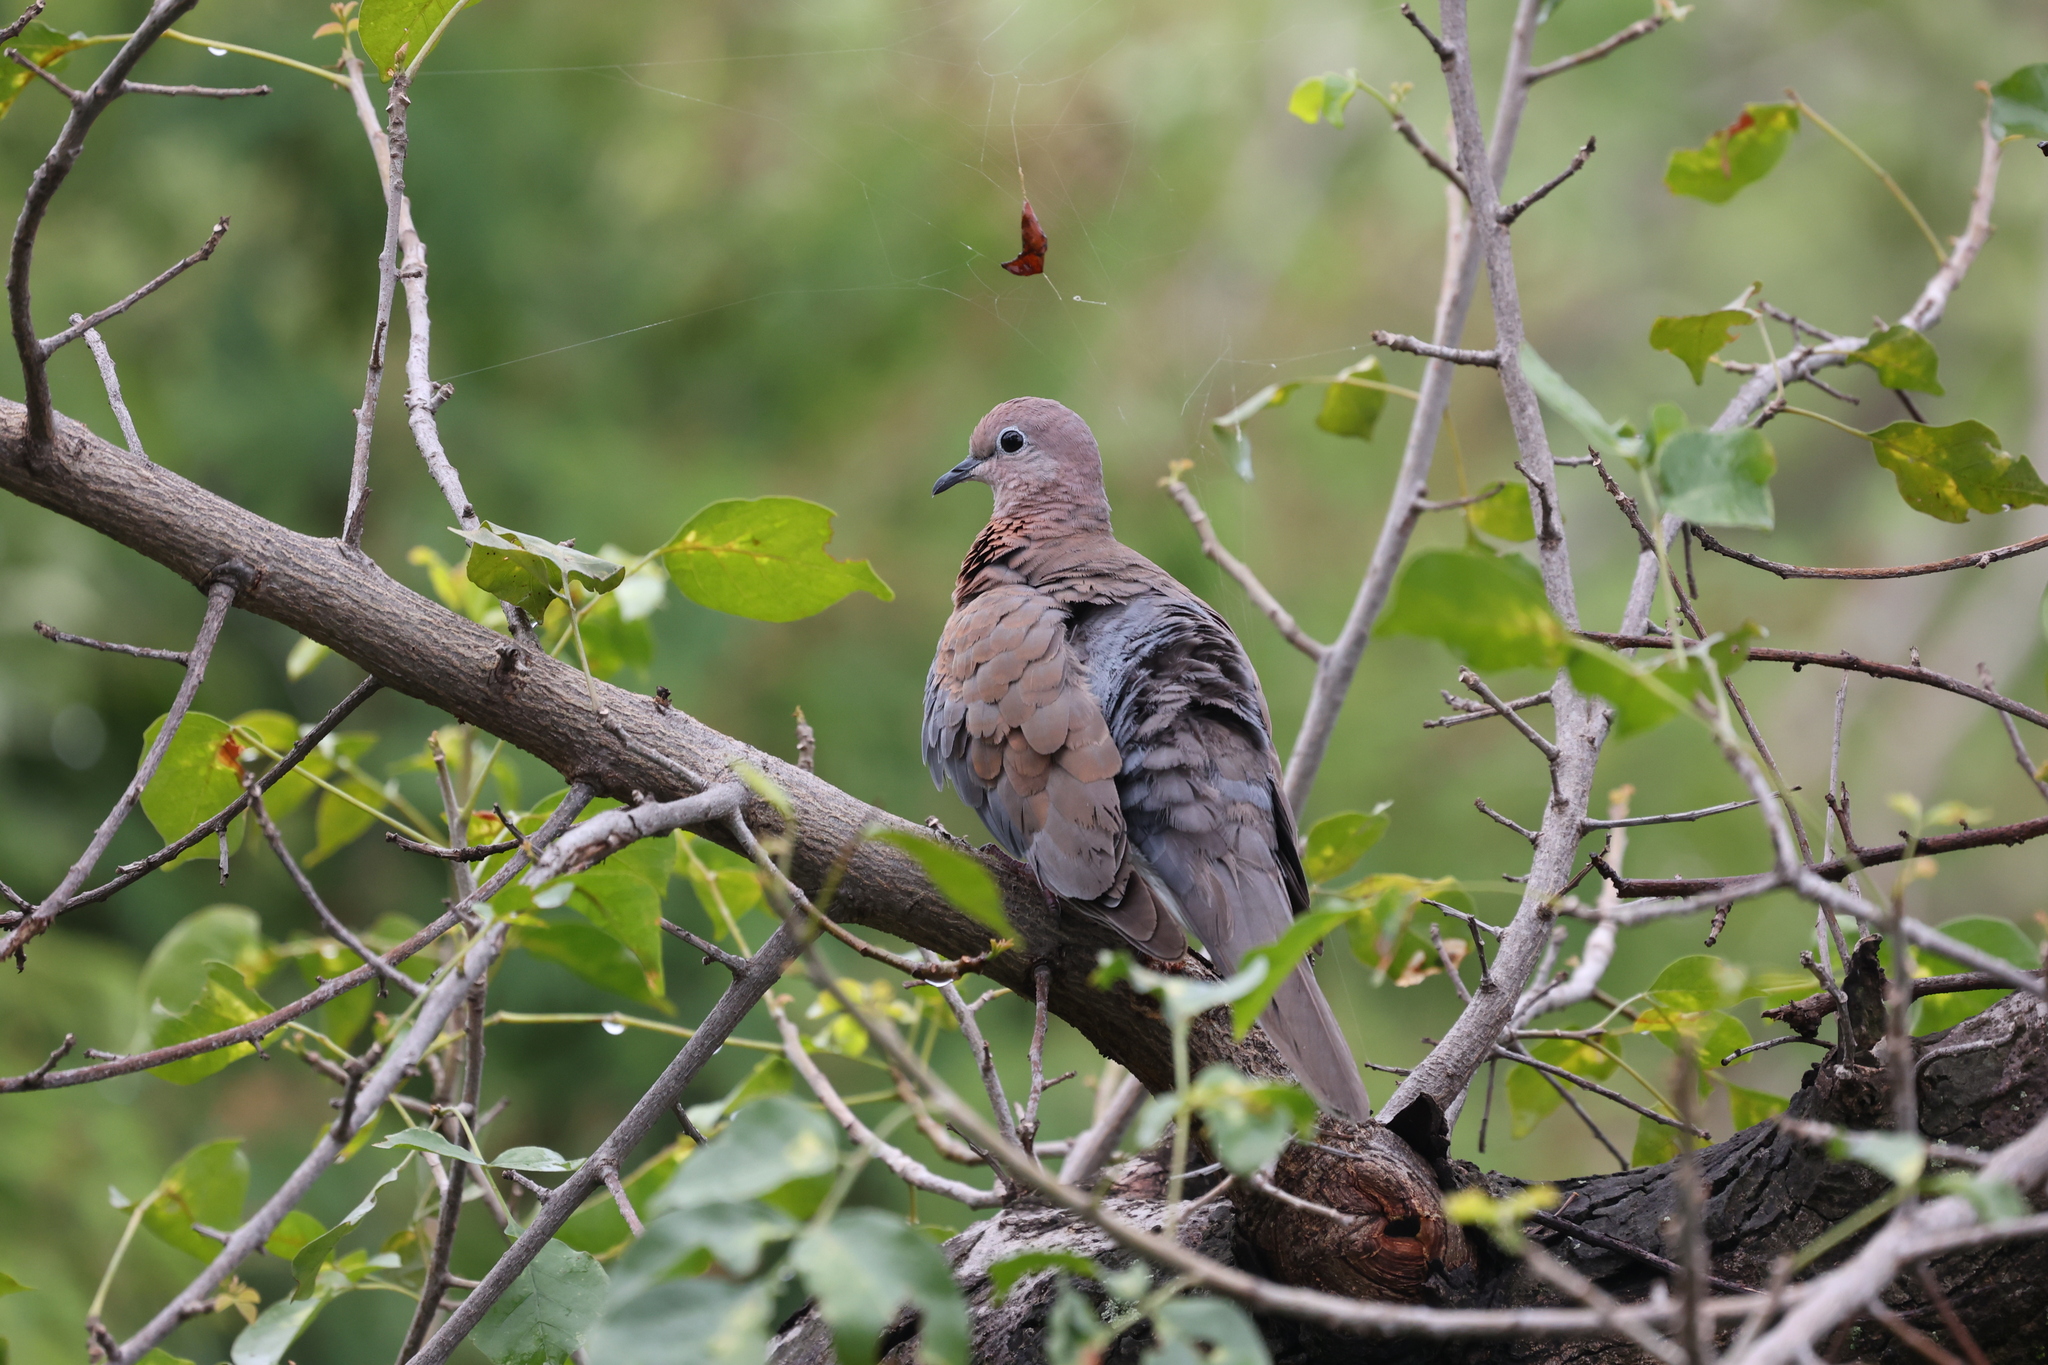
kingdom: Animalia
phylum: Chordata
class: Aves
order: Columbiformes
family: Columbidae
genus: Spilopelia
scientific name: Spilopelia senegalensis
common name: Laughing dove
